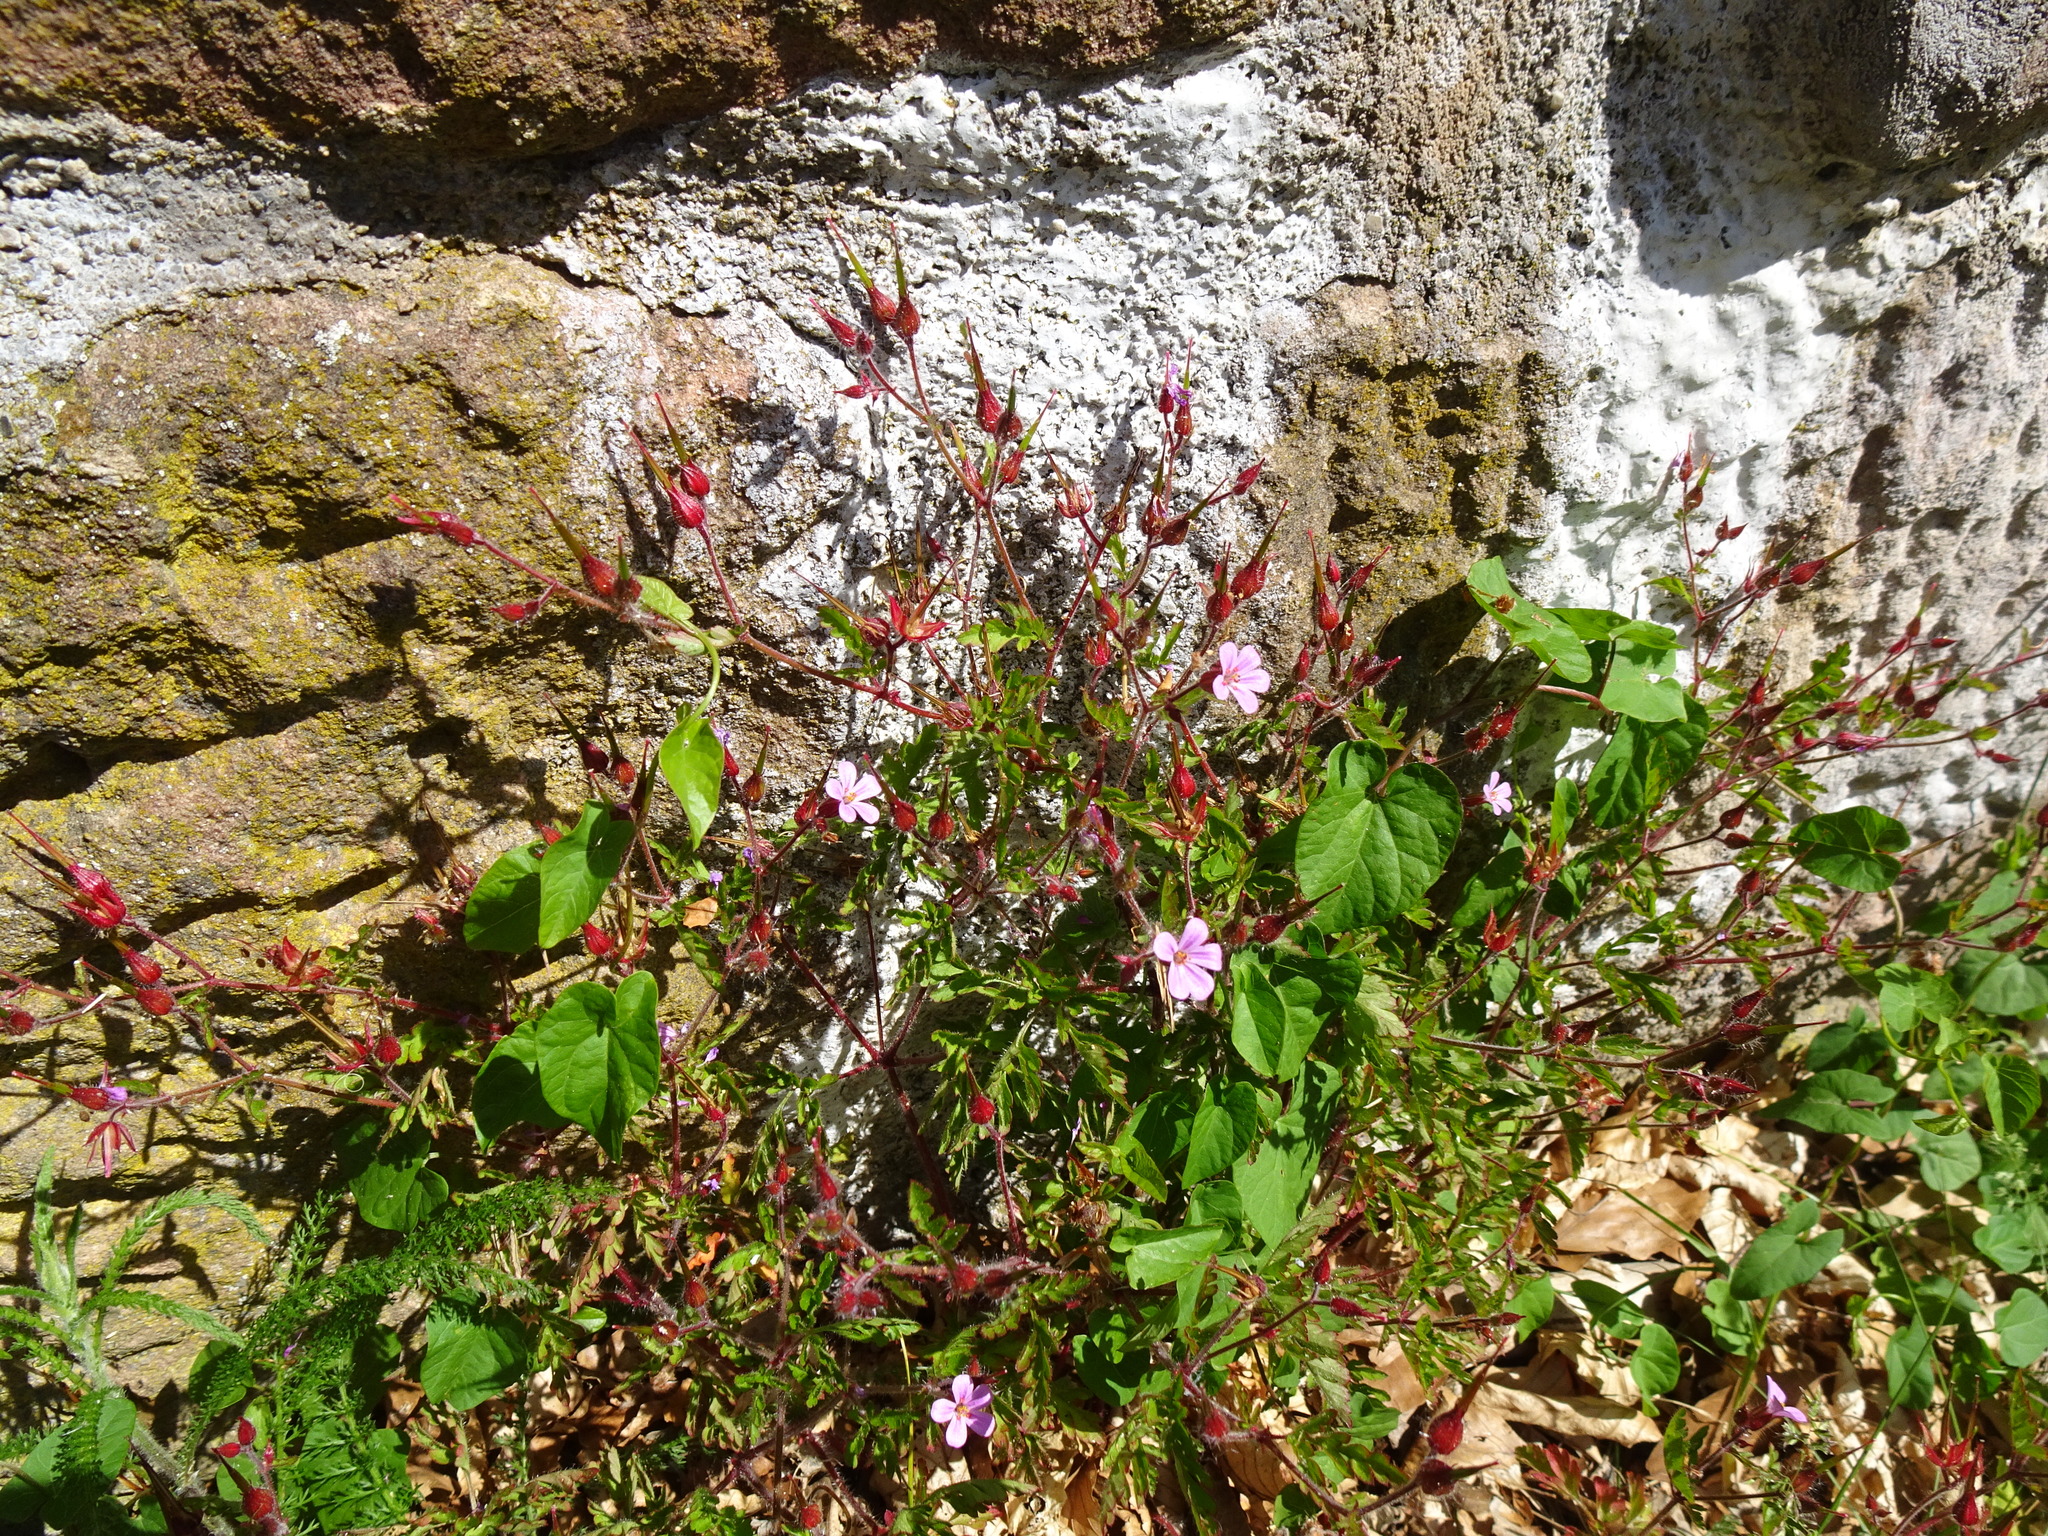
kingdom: Plantae
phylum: Tracheophyta
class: Magnoliopsida
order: Geraniales
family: Geraniaceae
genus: Geranium
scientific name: Geranium robertianum
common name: Herb-robert
